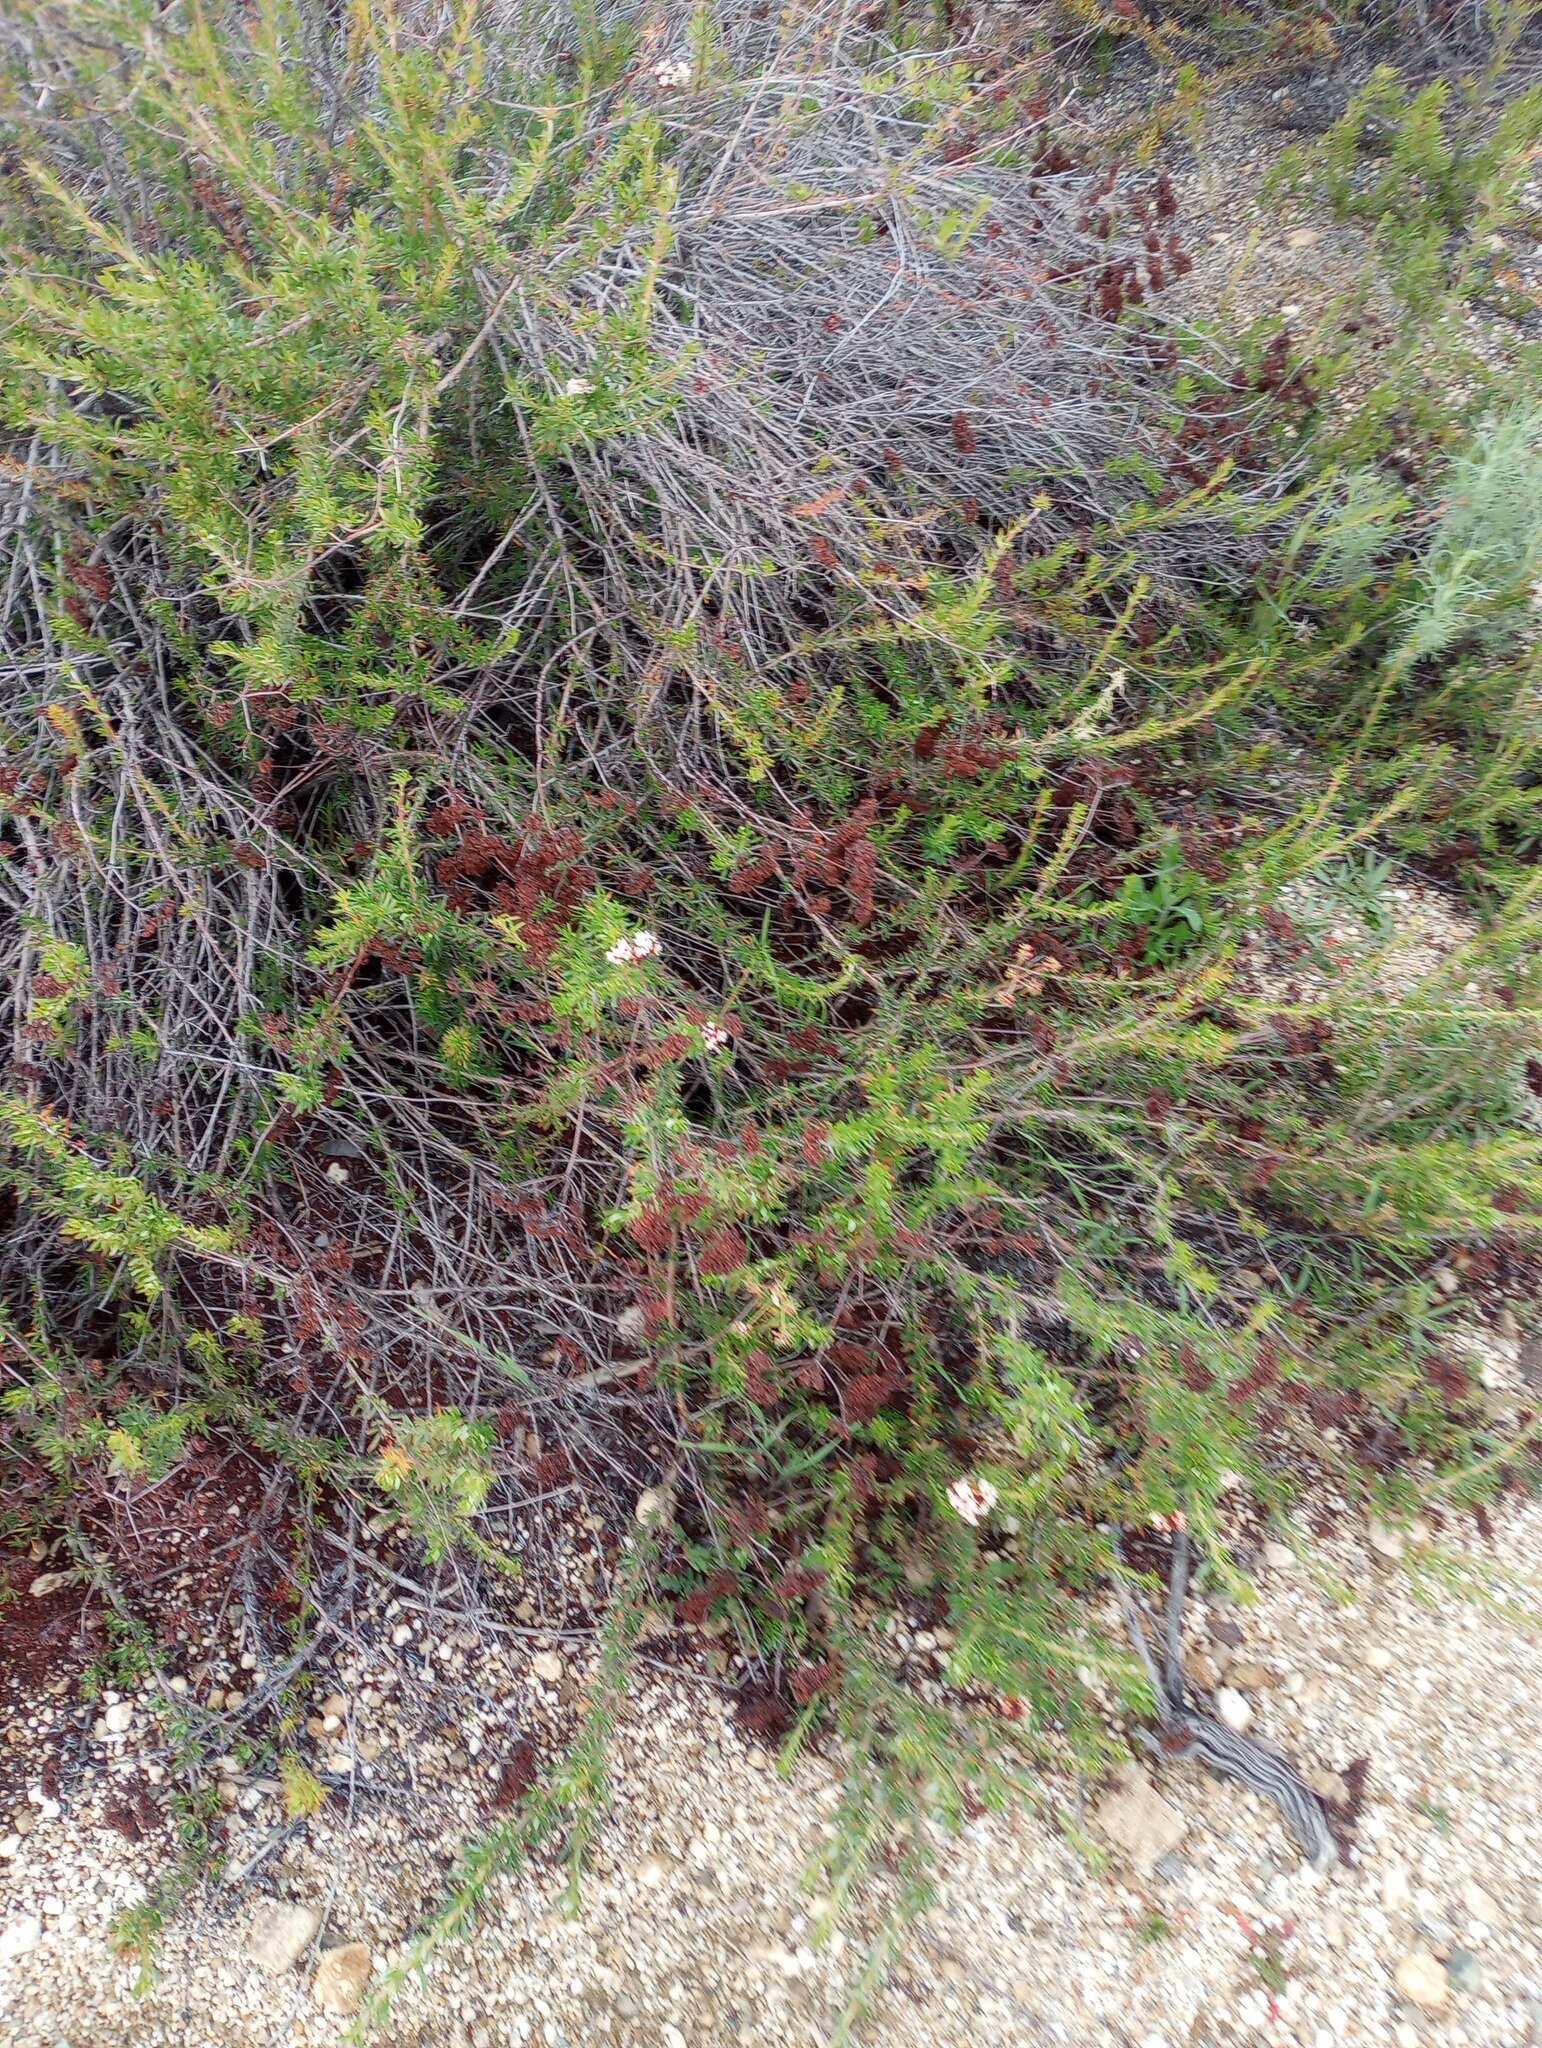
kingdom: Plantae
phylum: Tracheophyta
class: Magnoliopsida
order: Caryophyllales
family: Polygonaceae
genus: Eriogonum
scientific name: Eriogonum fasciculatum
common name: California wild buckwheat
